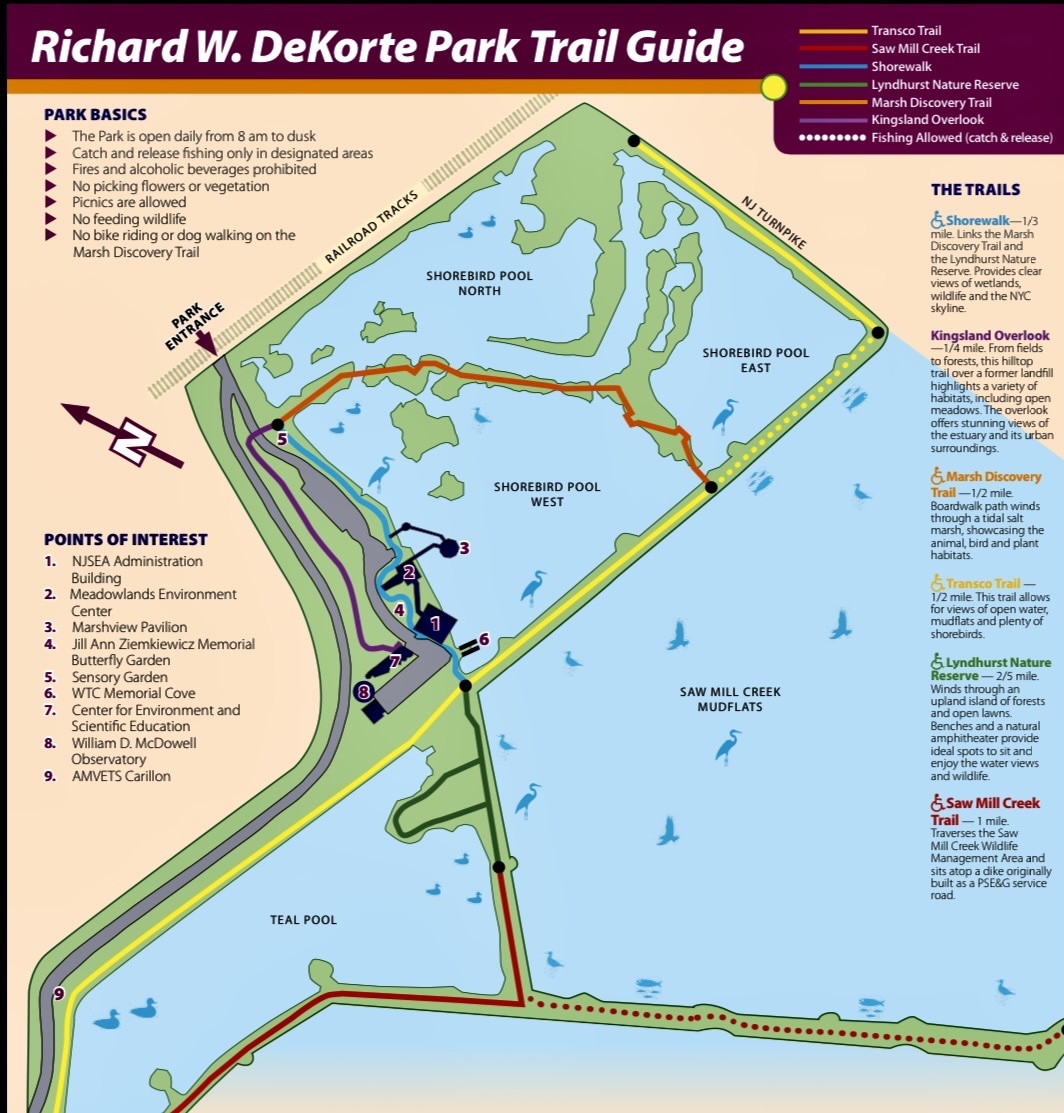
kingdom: Plantae
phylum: Tracheophyta
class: Liliopsida
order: Poales
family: Poaceae
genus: Phragmites
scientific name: Phragmites australis
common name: Common reed
